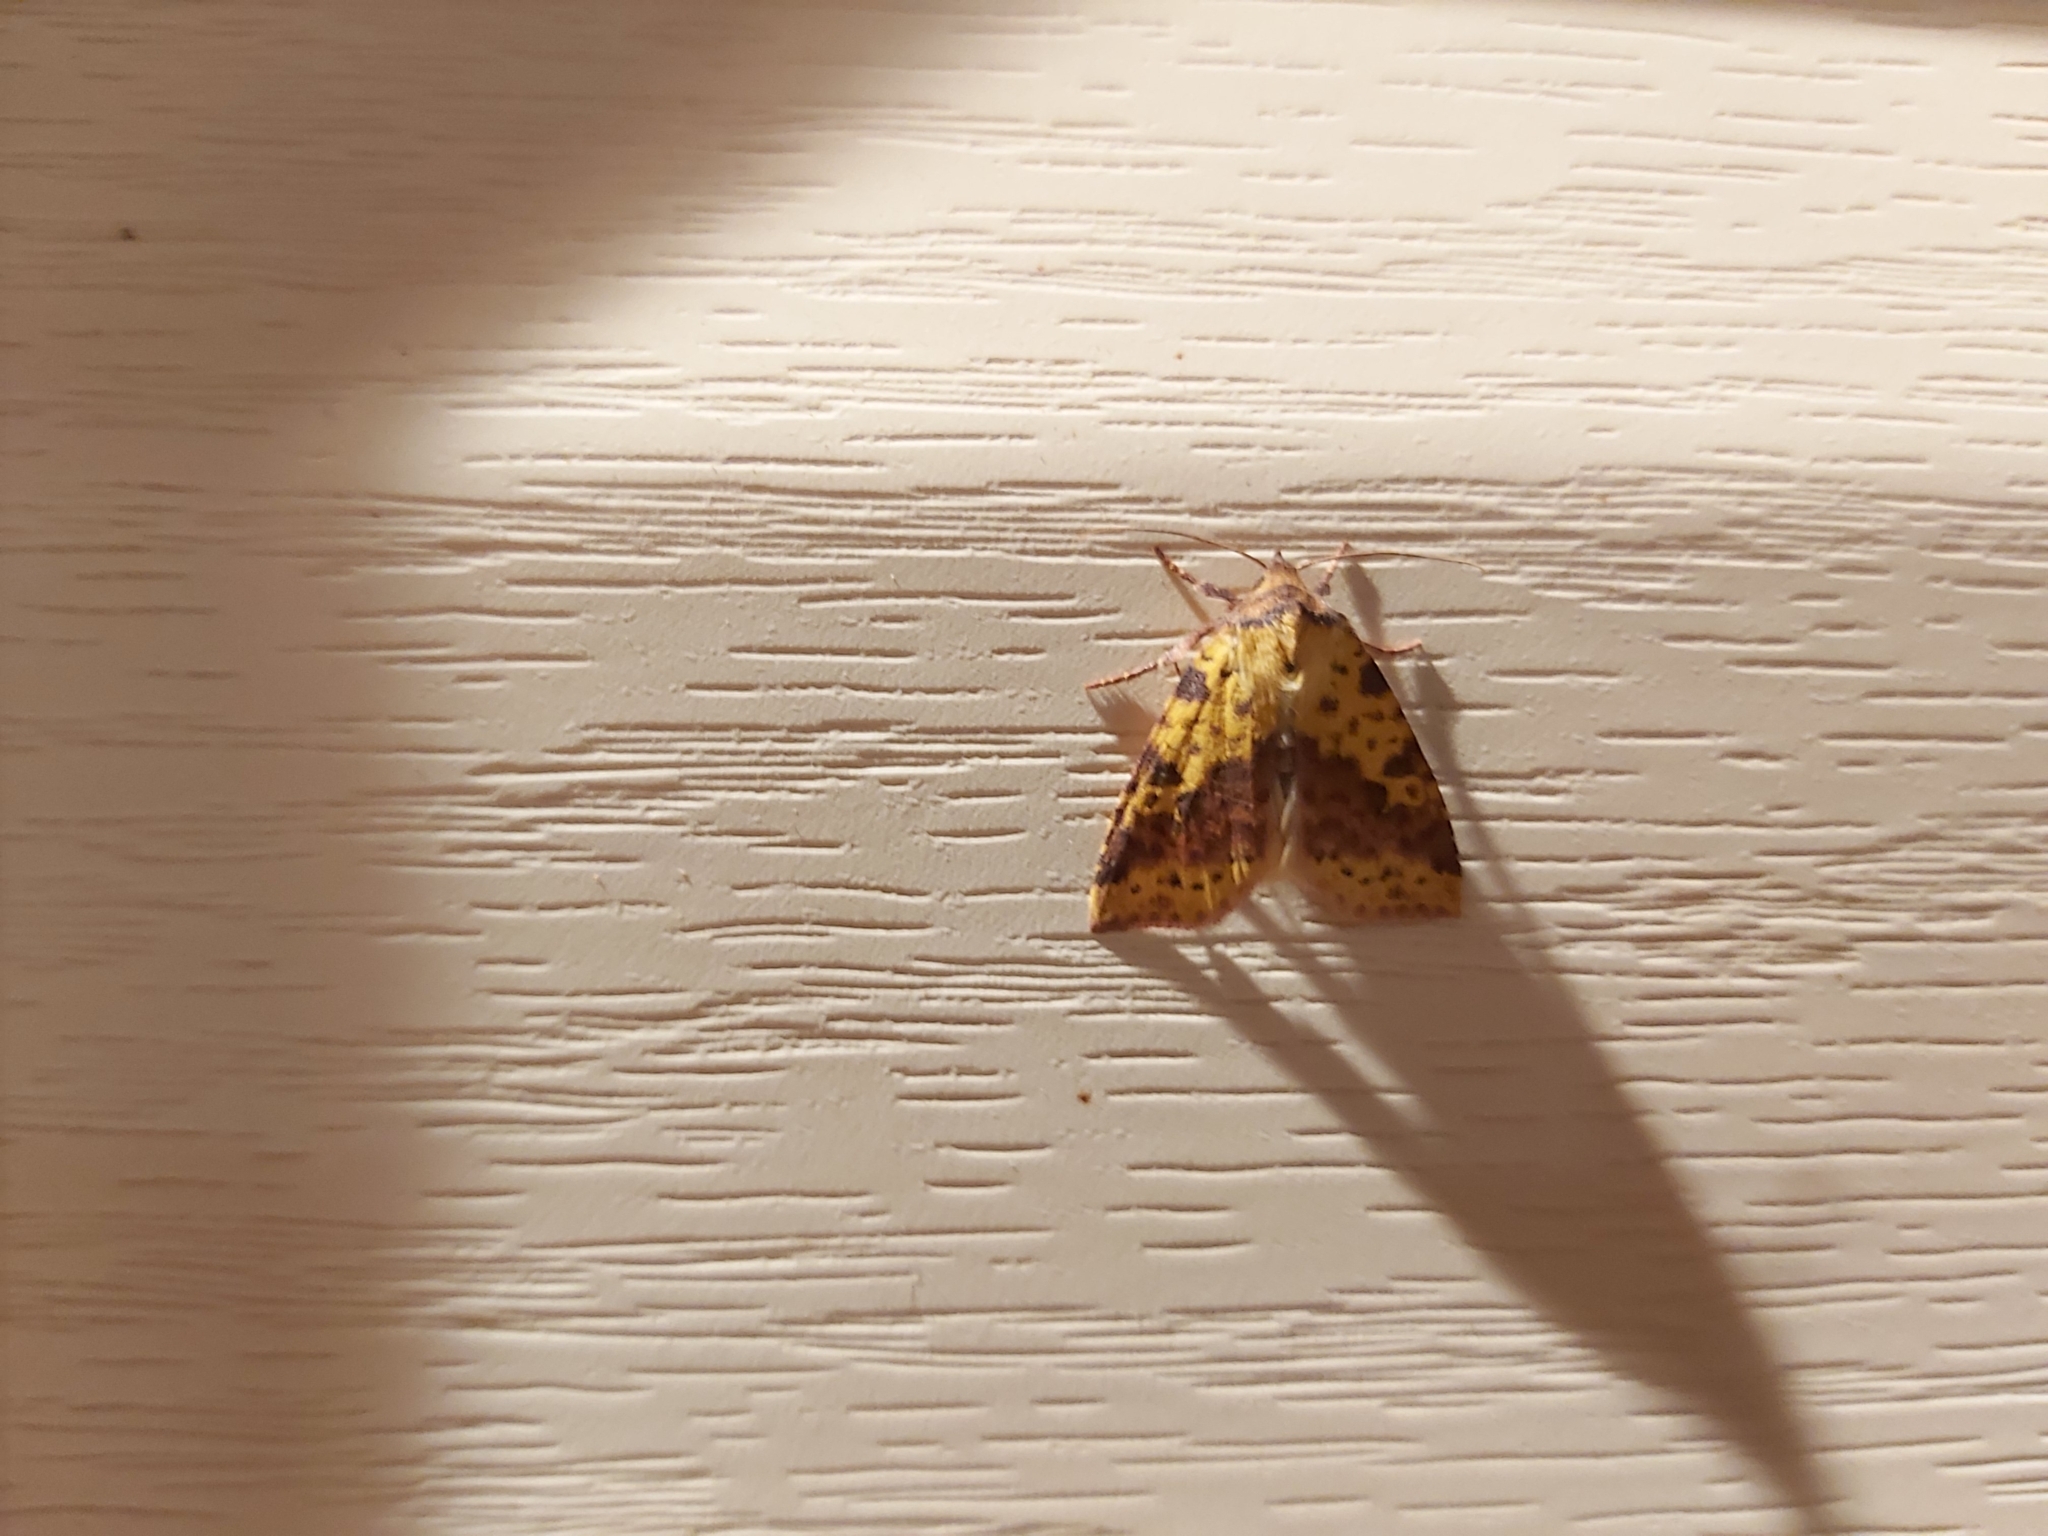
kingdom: Animalia
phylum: Arthropoda
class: Insecta
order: Lepidoptera
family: Noctuidae
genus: Xanthia
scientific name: Xanthia togata
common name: Pink-barred sallow
